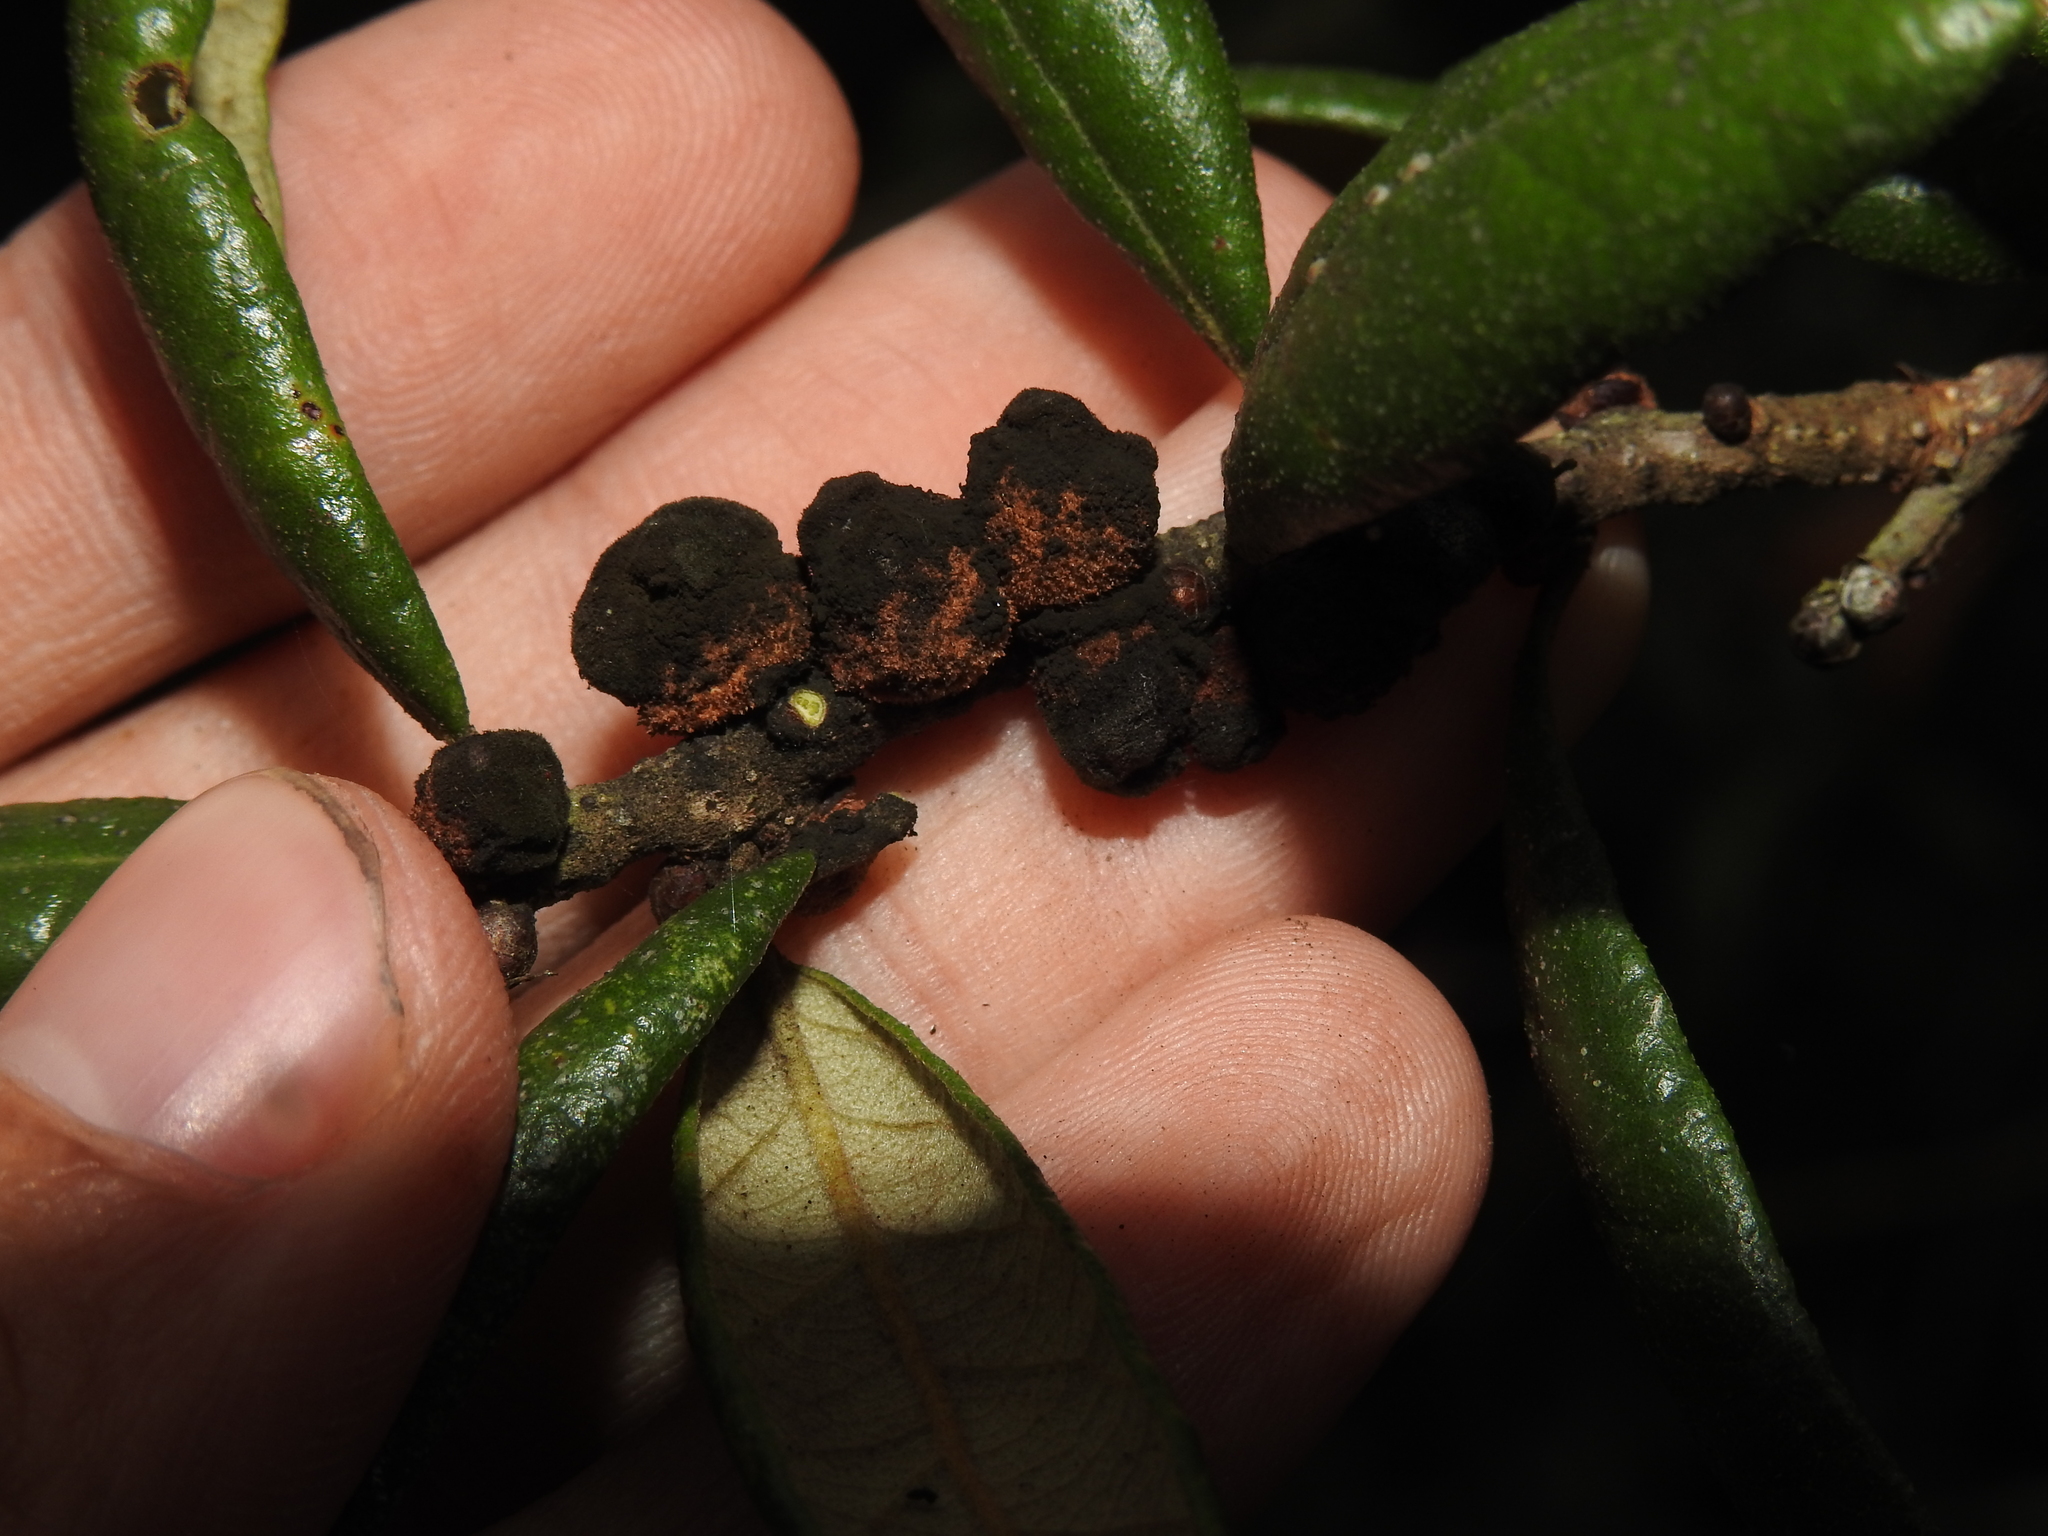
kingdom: Animalia
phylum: Arthropoda
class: Insecta
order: Hymenoptera
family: Cynipidae
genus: Disholcaspis
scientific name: Disholcaspis
